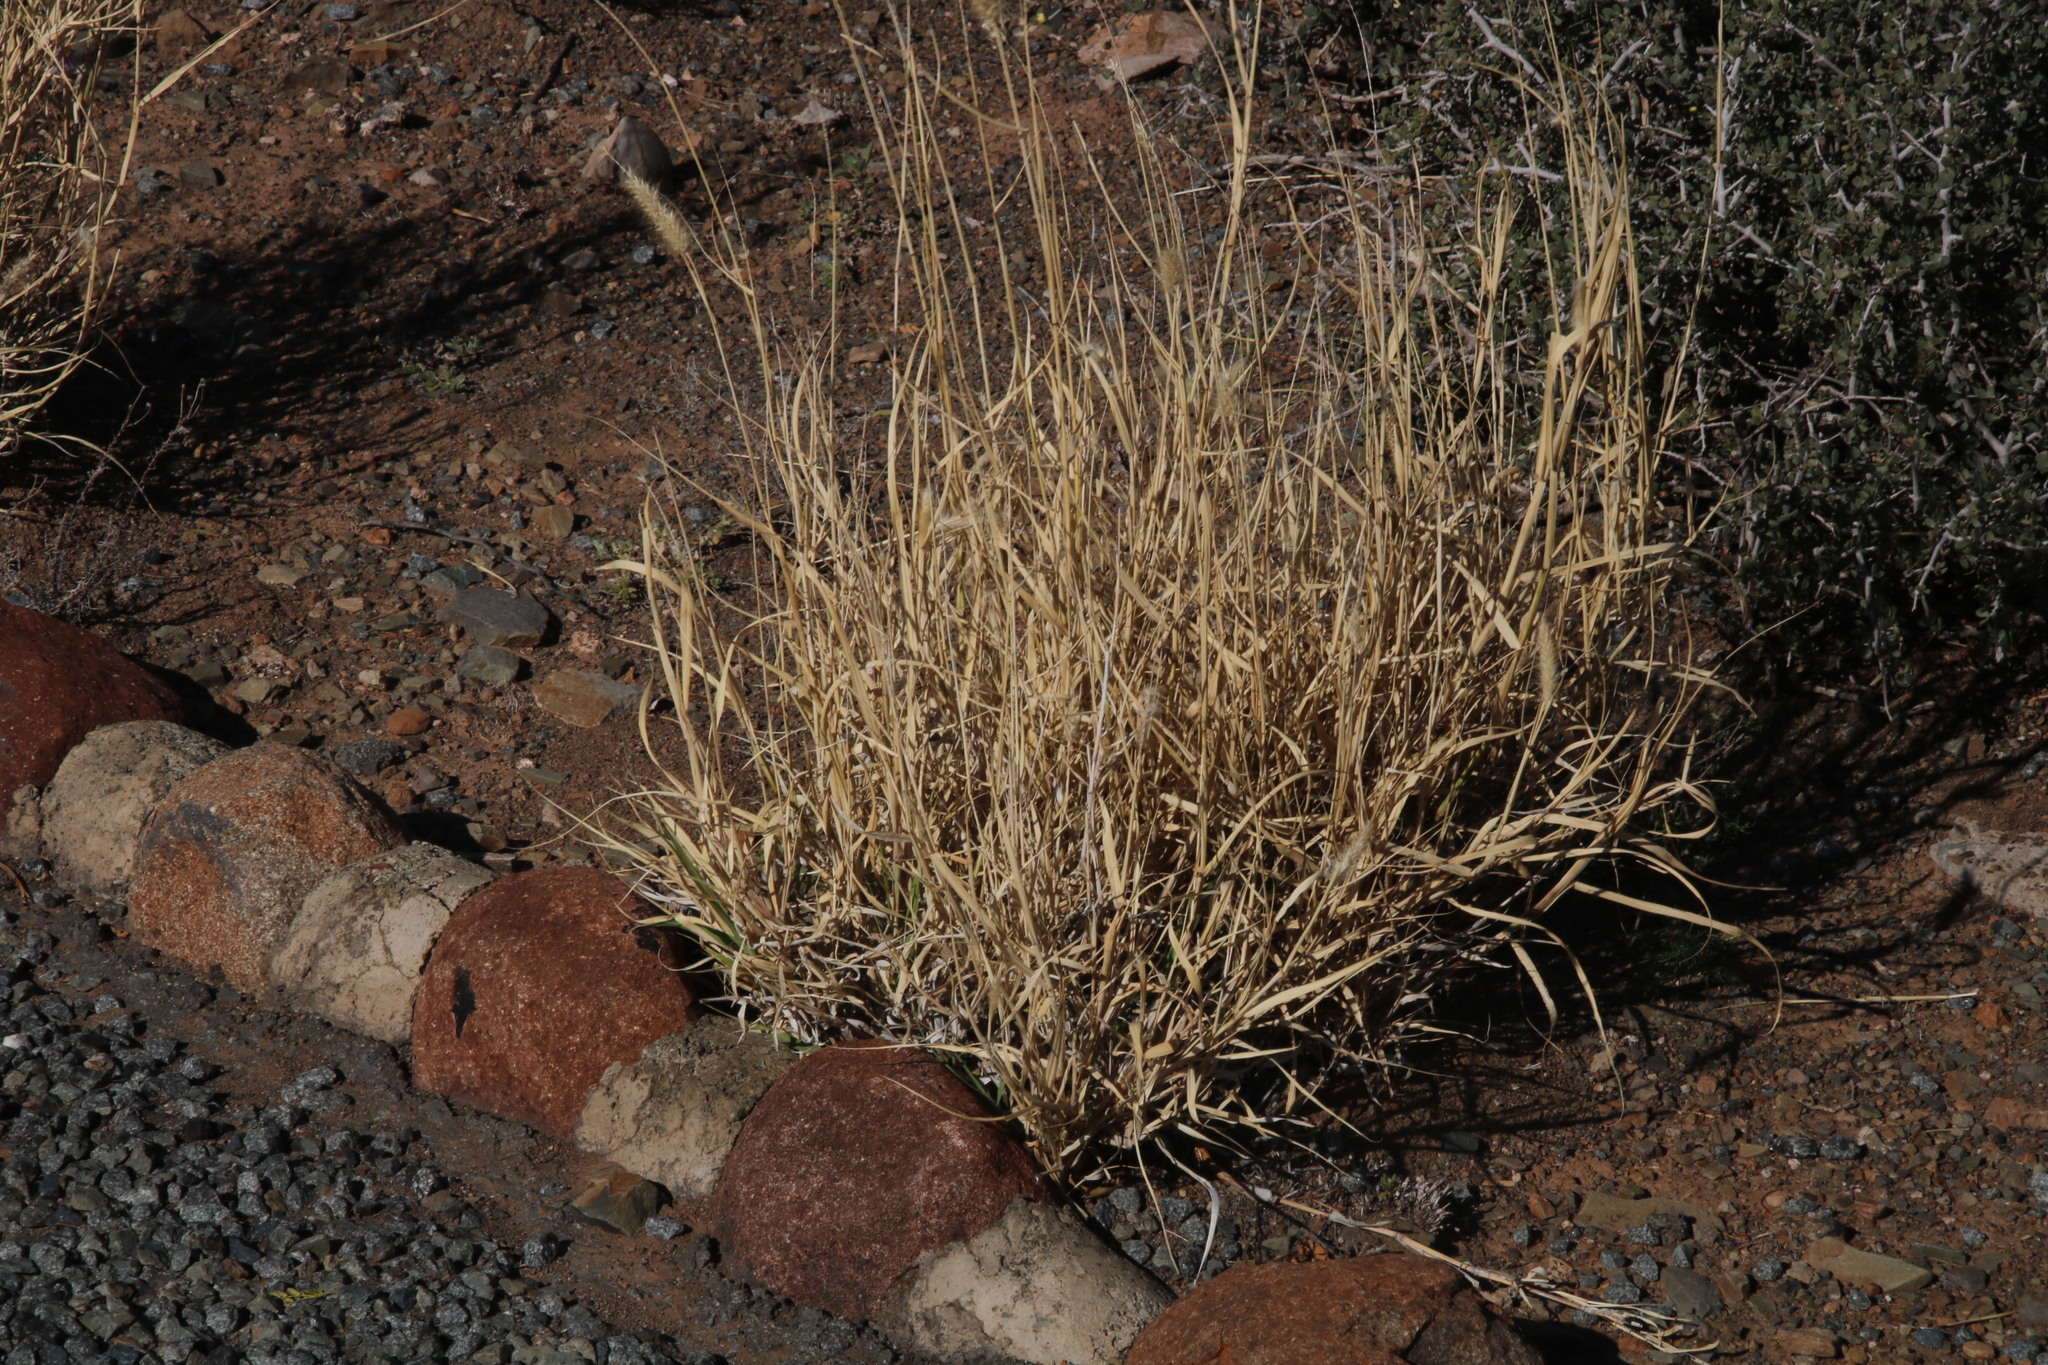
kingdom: Plantae
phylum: Tracheophyta
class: Liliopsida
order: Poales
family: Poaceae
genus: Cenchrus
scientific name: Cenchrus ciliaris
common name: Buffelgrass
